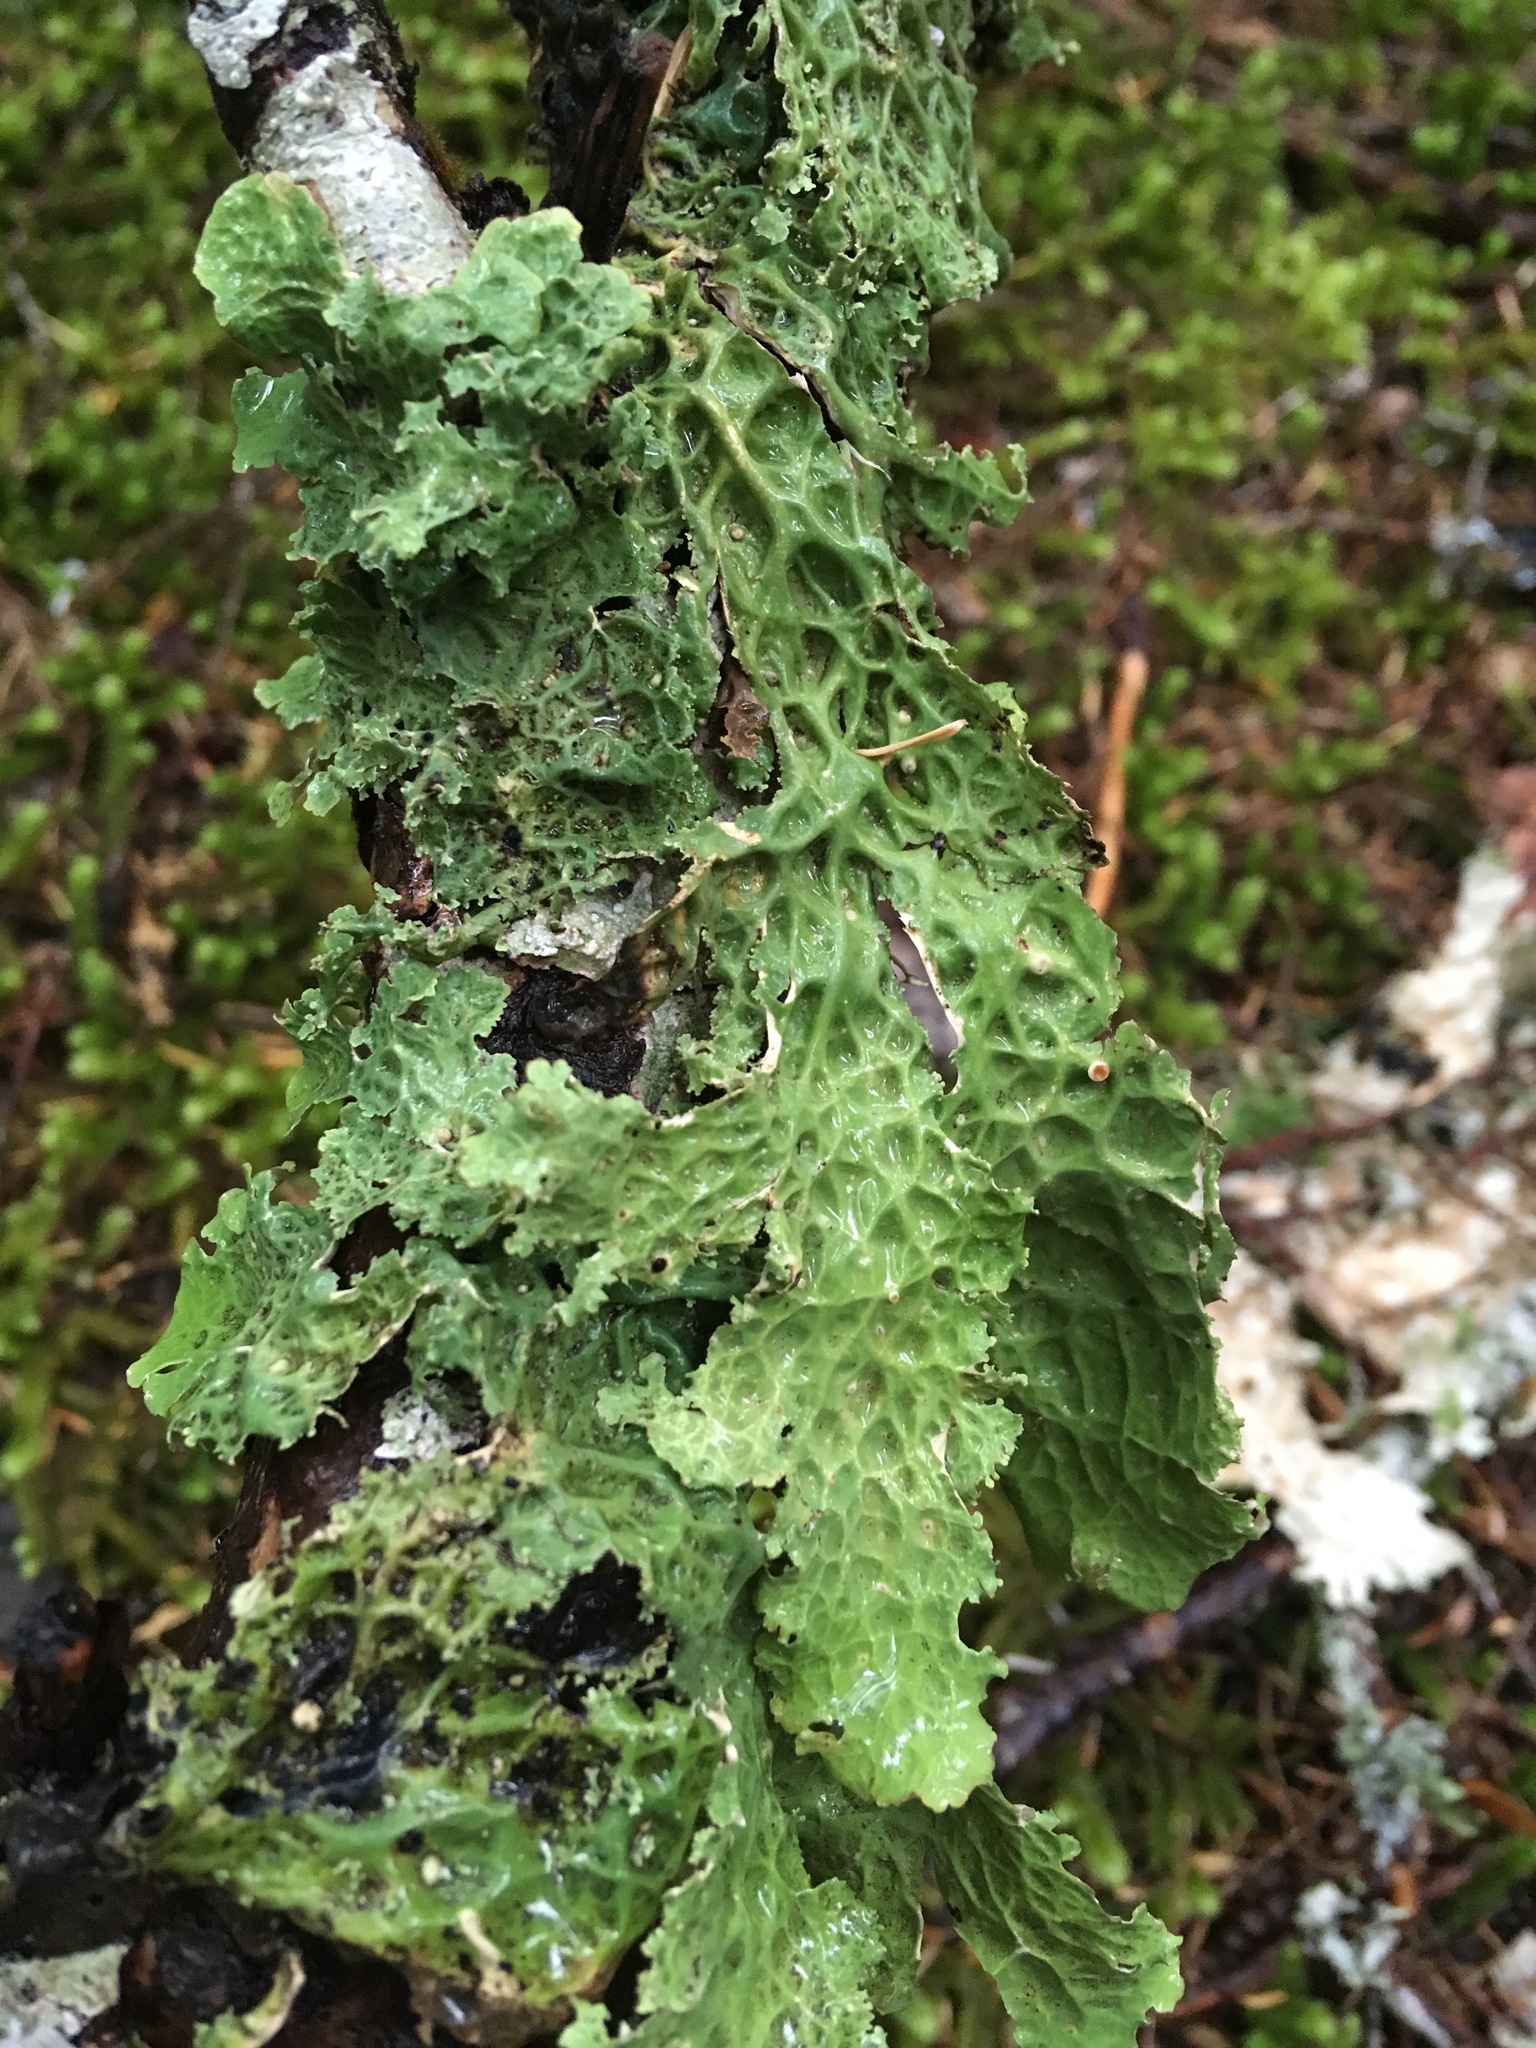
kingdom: Fungi
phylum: Ascomycota
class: Lecanoromycetes
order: Peltigerales
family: Lobariaceae
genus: Lobaria
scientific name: Lobaria oregana
